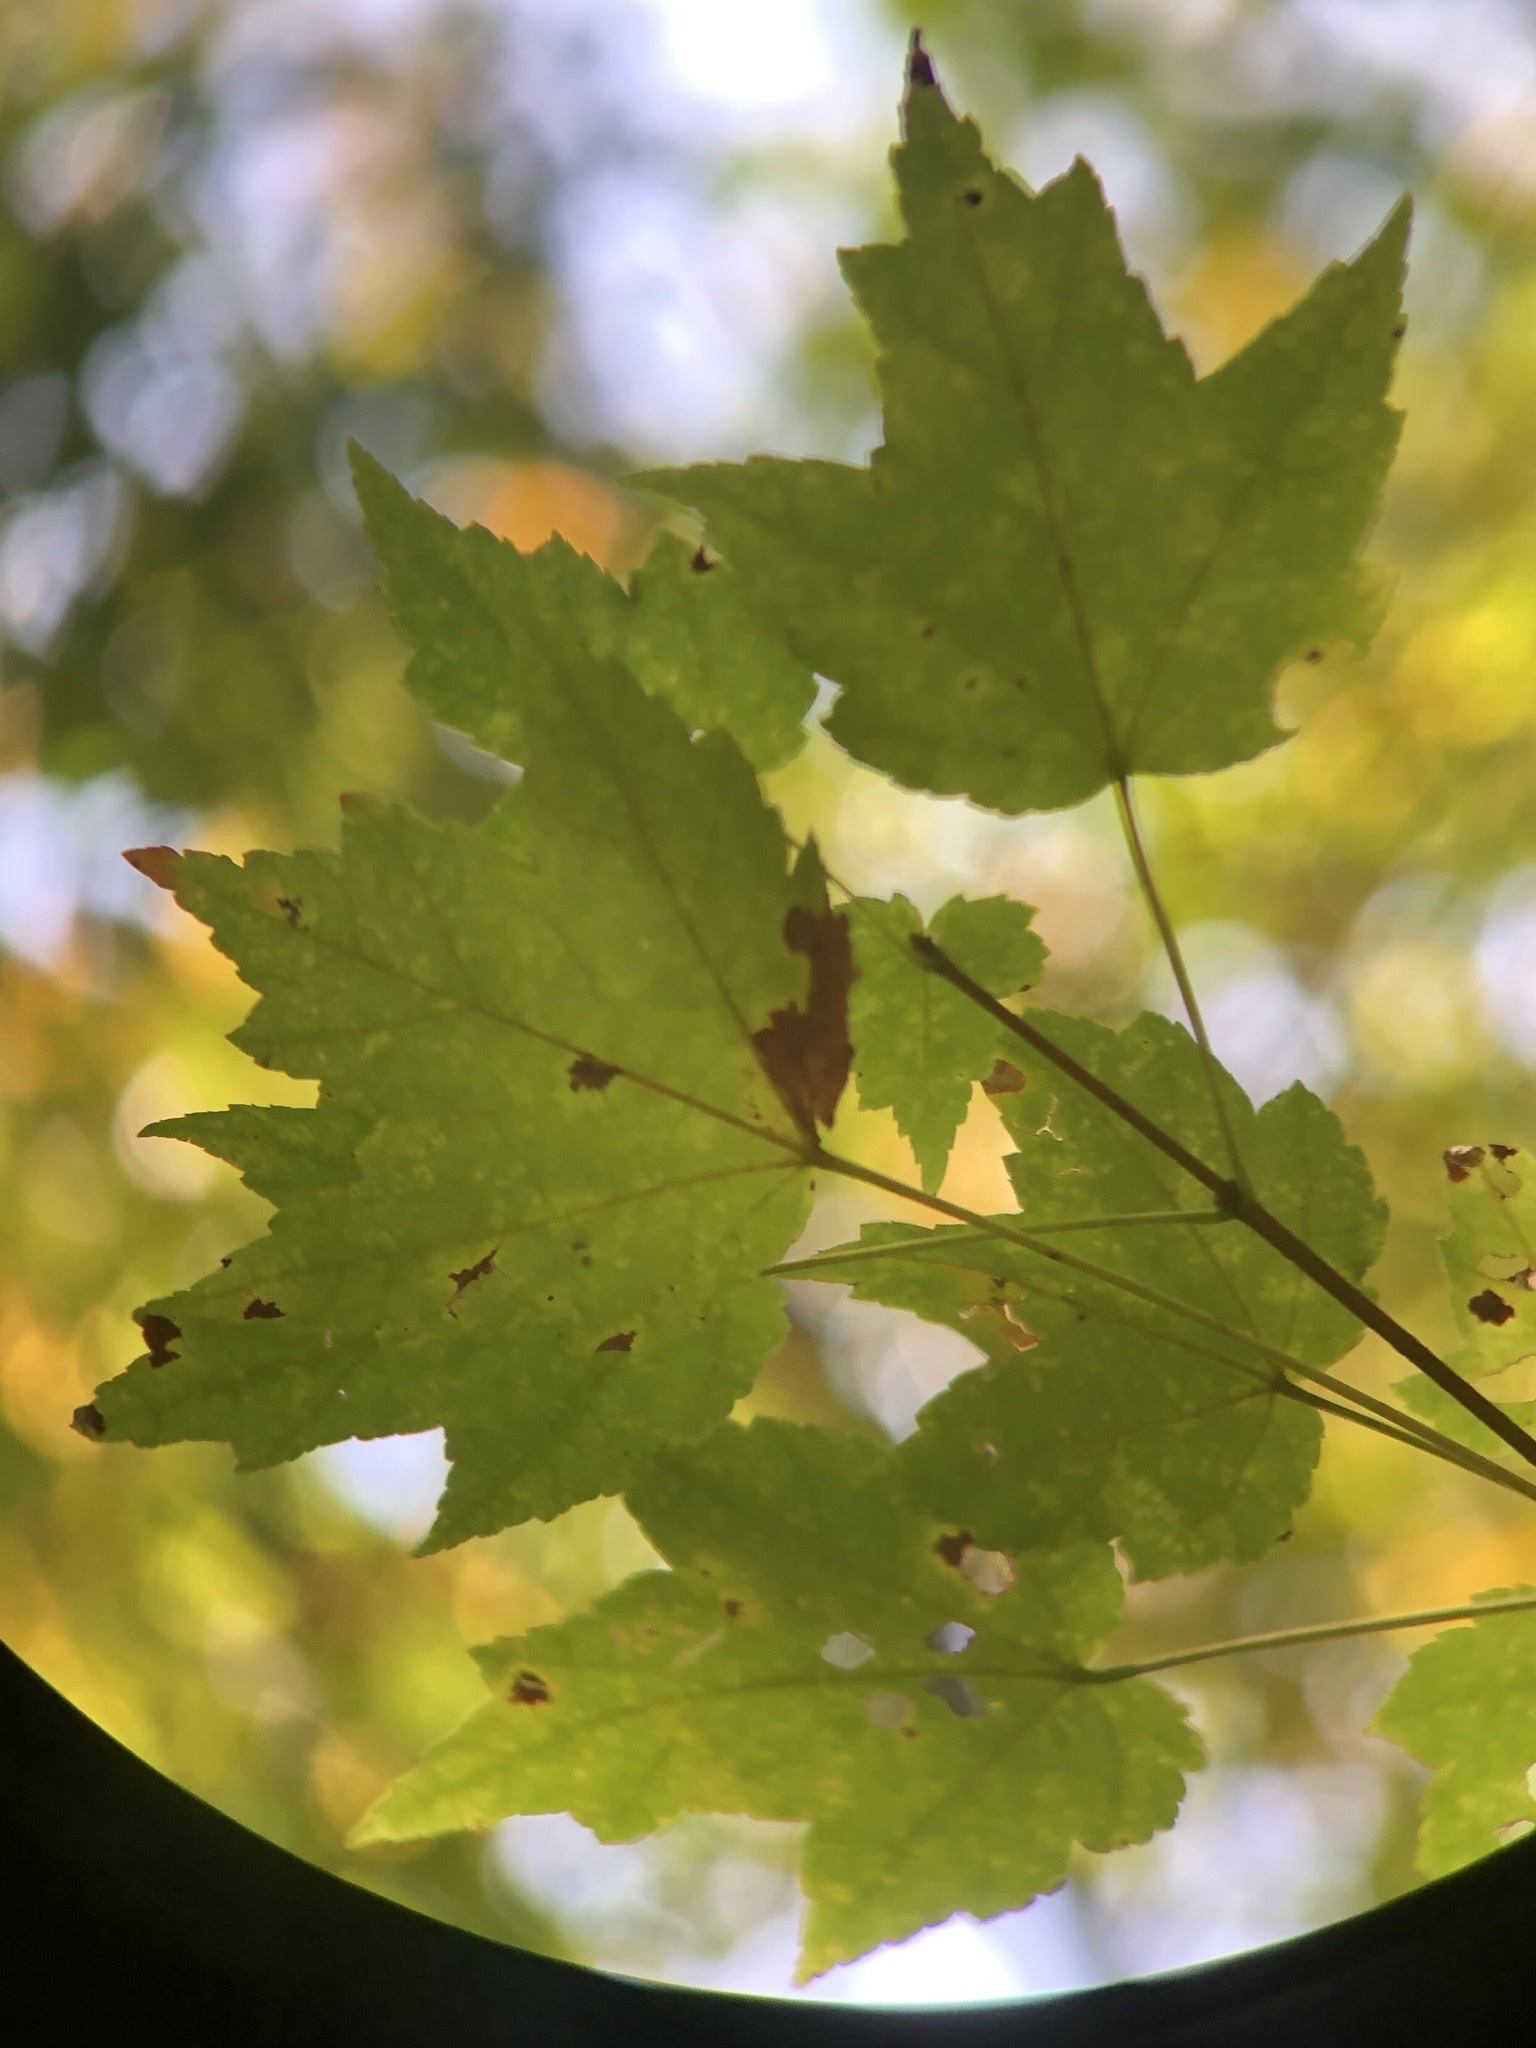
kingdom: Plantae
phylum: Tracheophyta
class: Magnoliopsida
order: Sapindales
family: Sapindaceae
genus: Acer
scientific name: Acer rubrum
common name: Red maple
